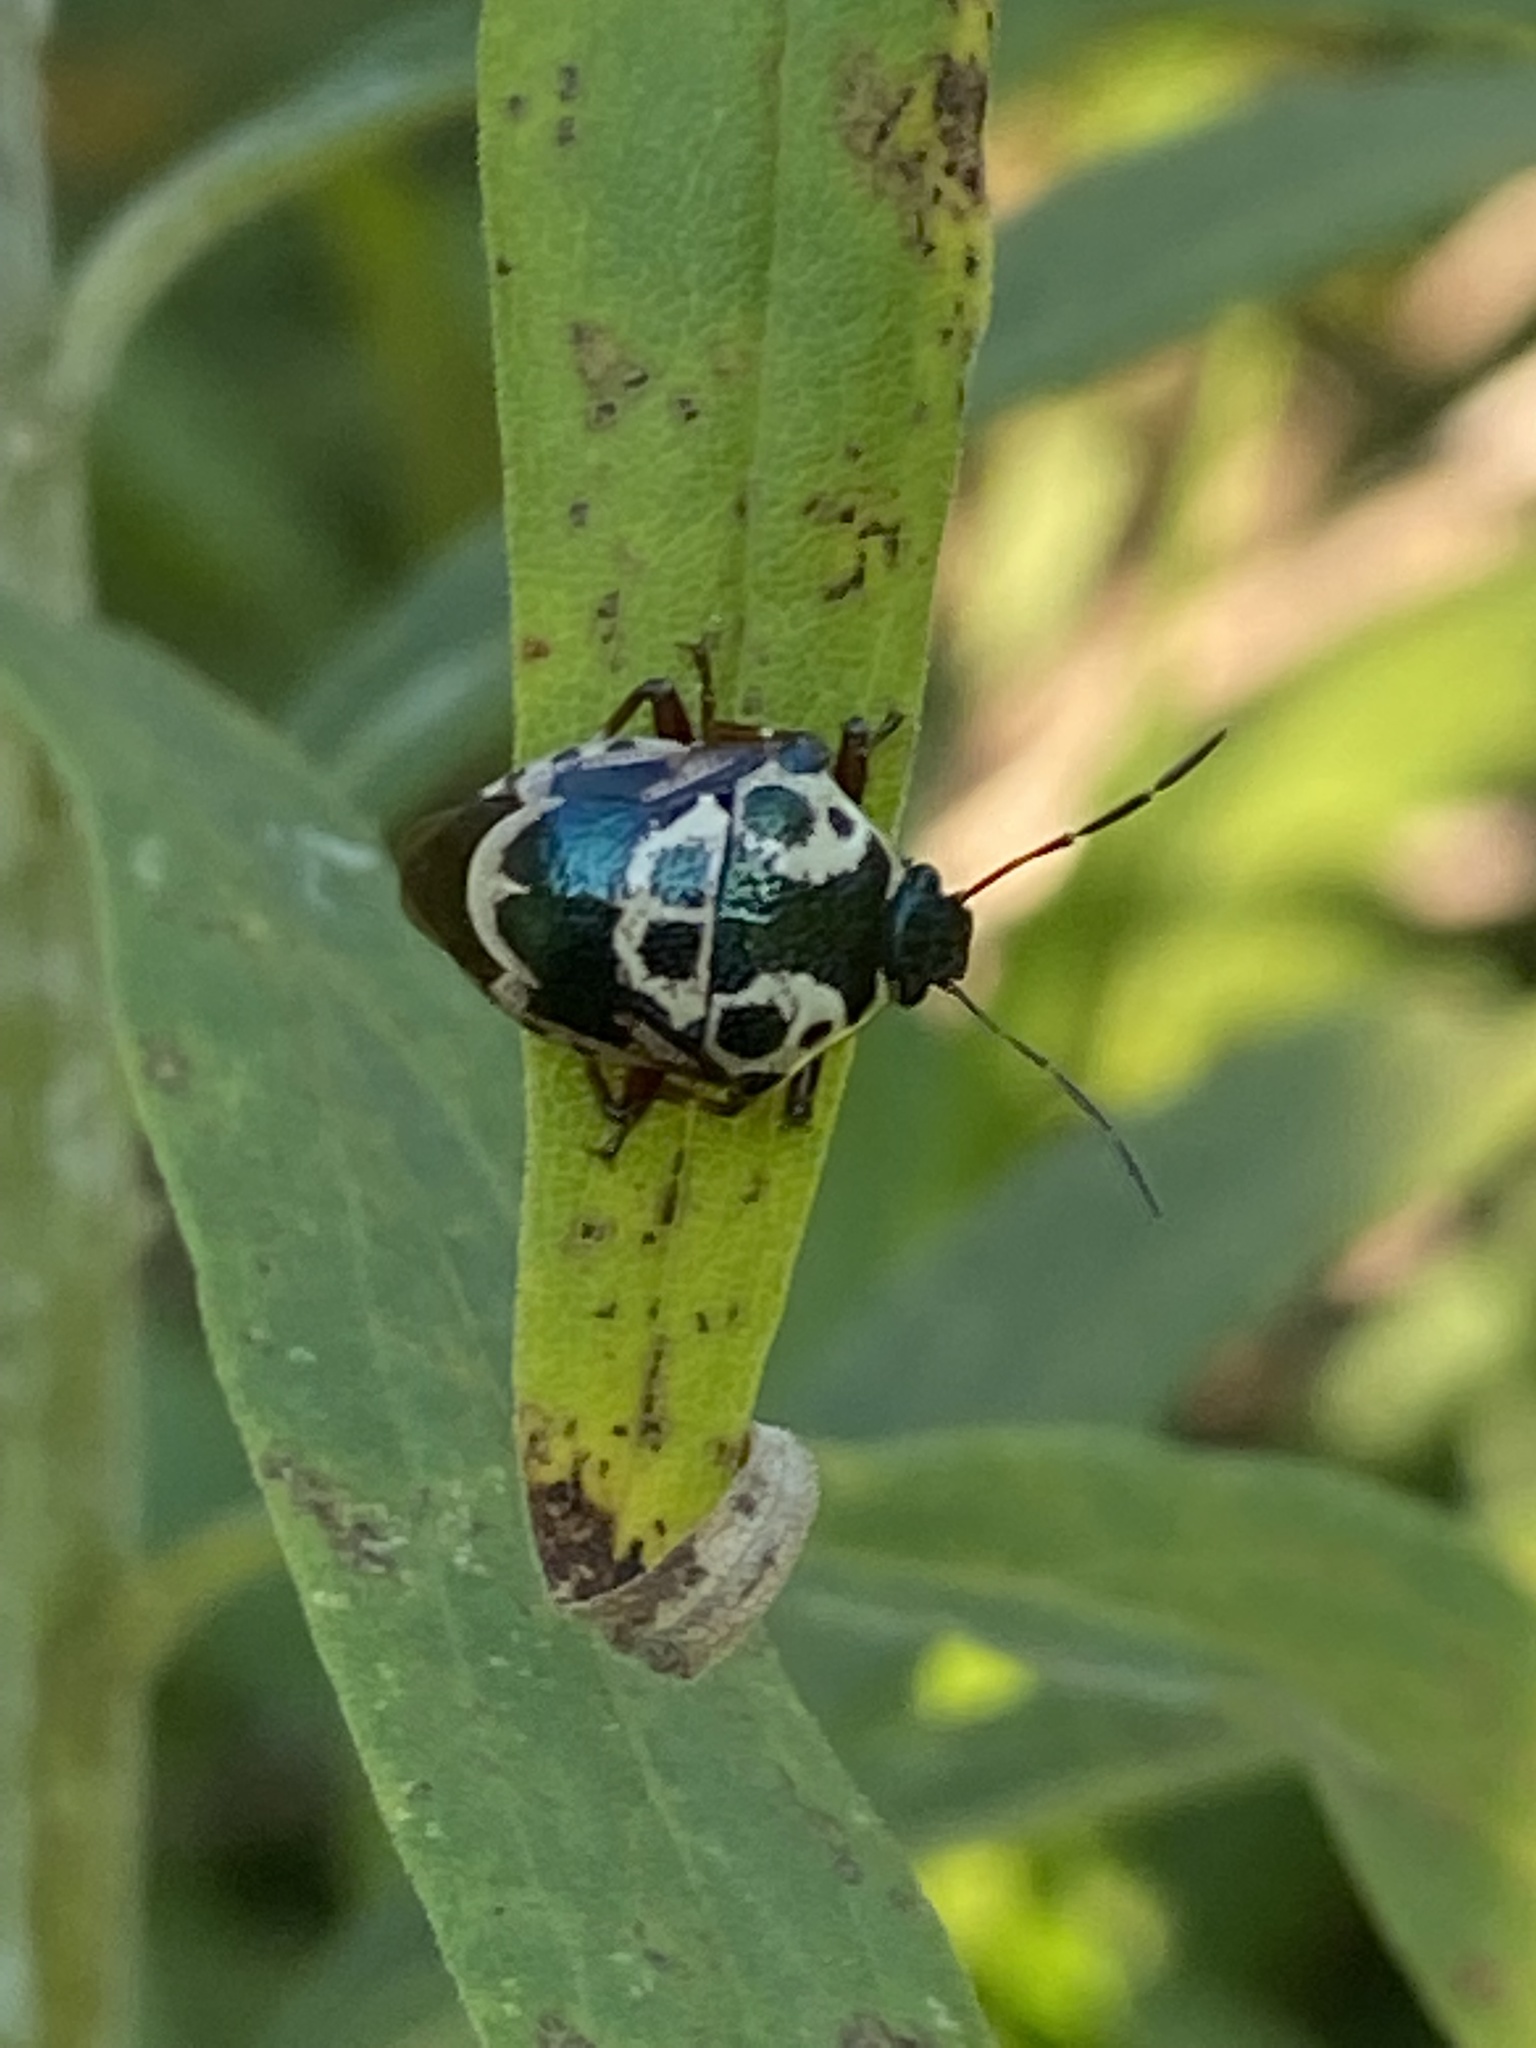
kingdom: Animalia
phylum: Arthropoda
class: Insecta
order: Hemiptera
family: Pentatomidae
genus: Stiretrus
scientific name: Stiretrus anchorago
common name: Anchor stink bug
